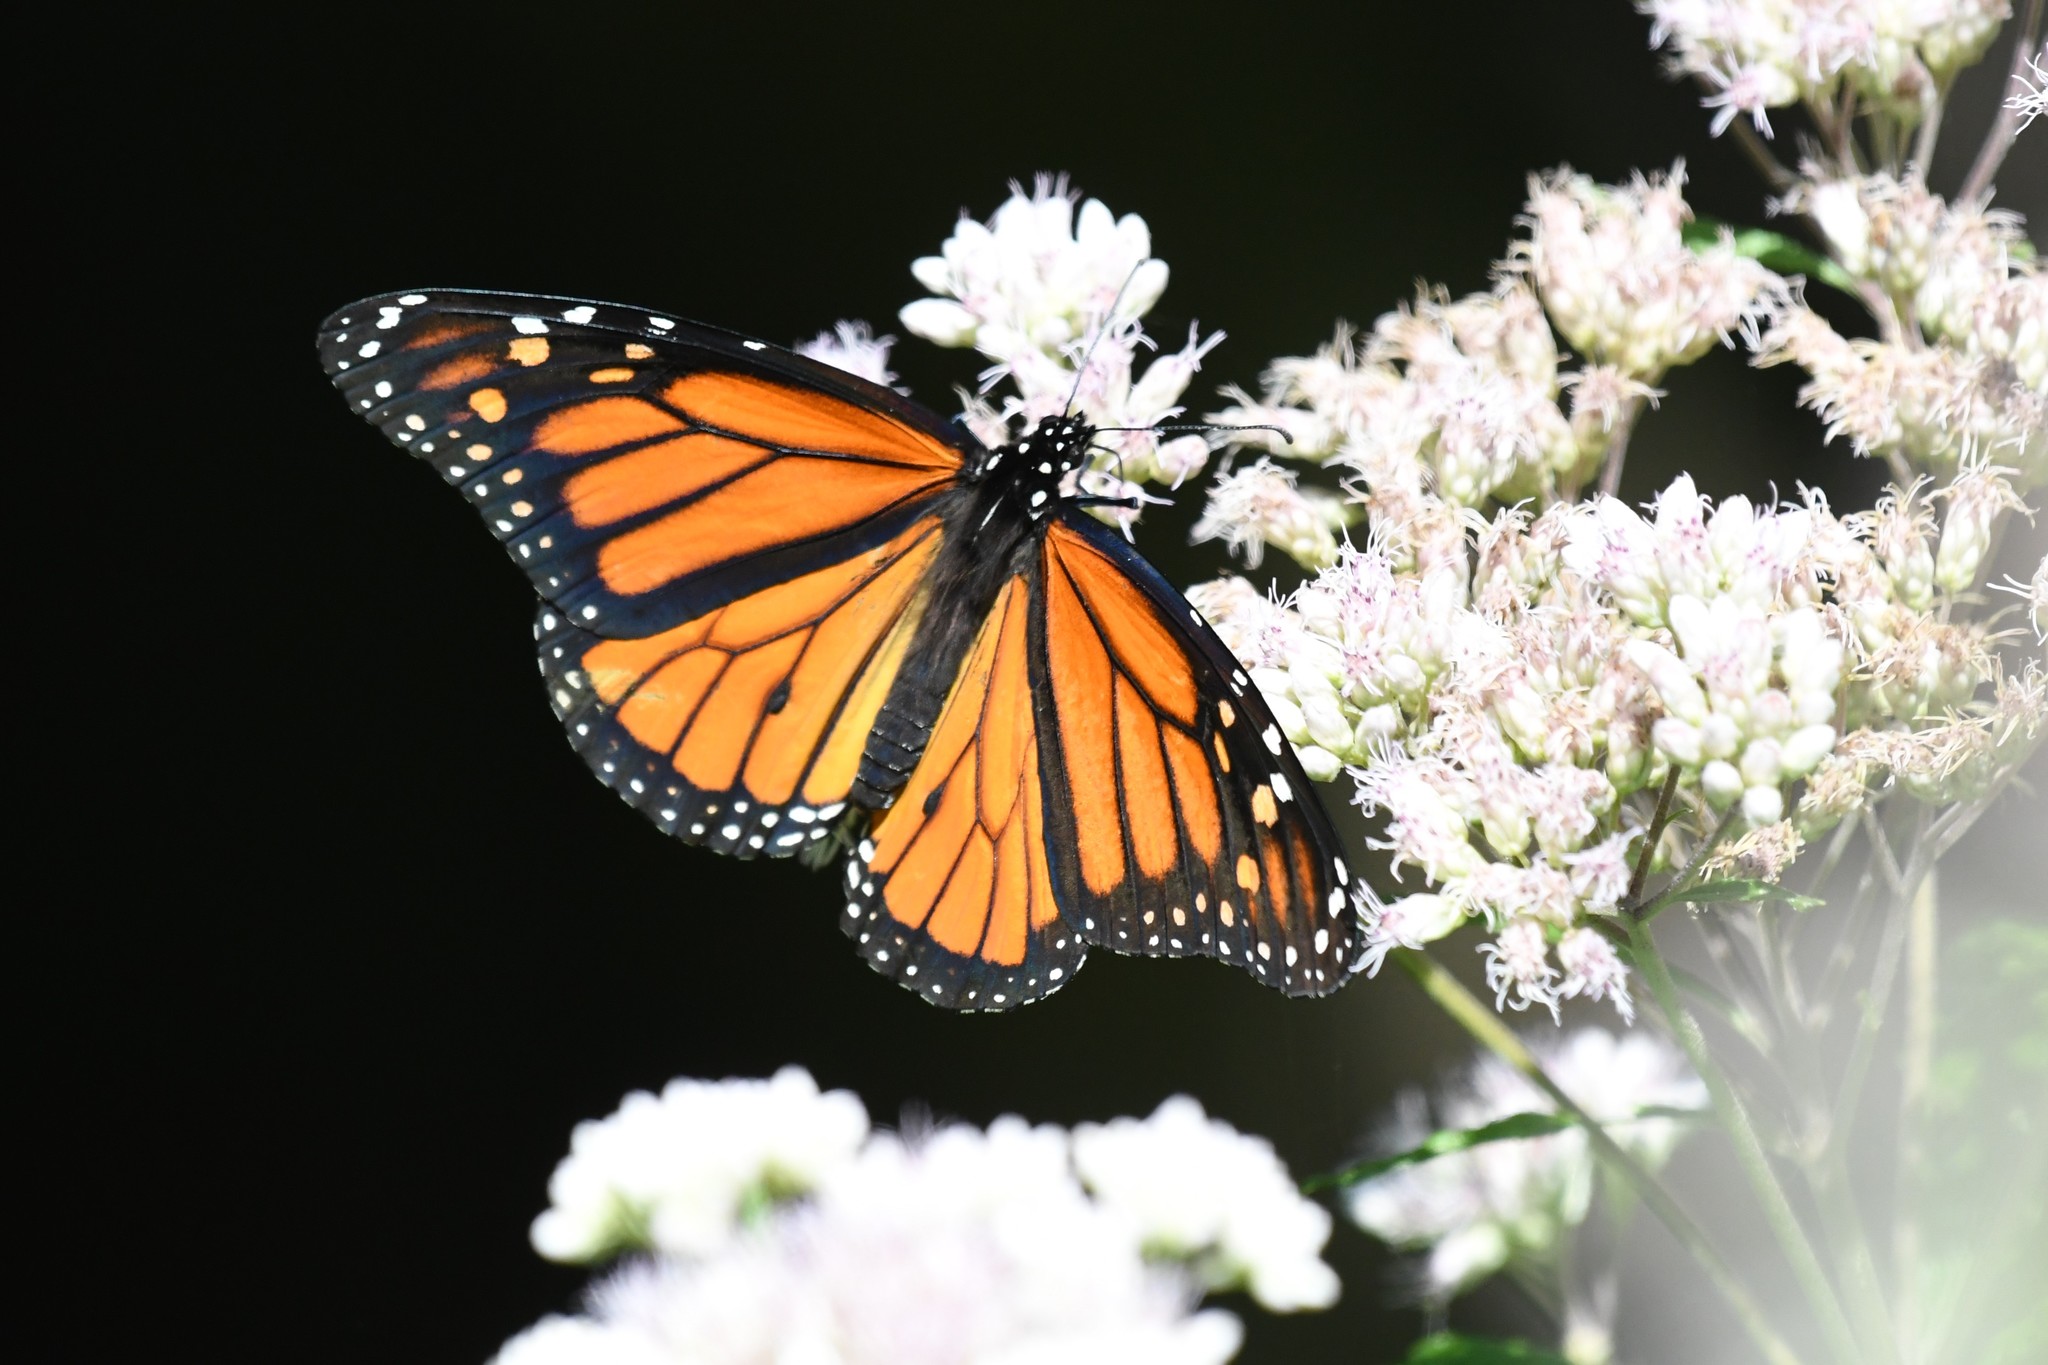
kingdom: Animalia
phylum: Arthropoda
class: Insecta
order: Lepidoptera
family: Nymphalidae
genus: Danaus
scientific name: Danaus plexippus
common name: Monarch
